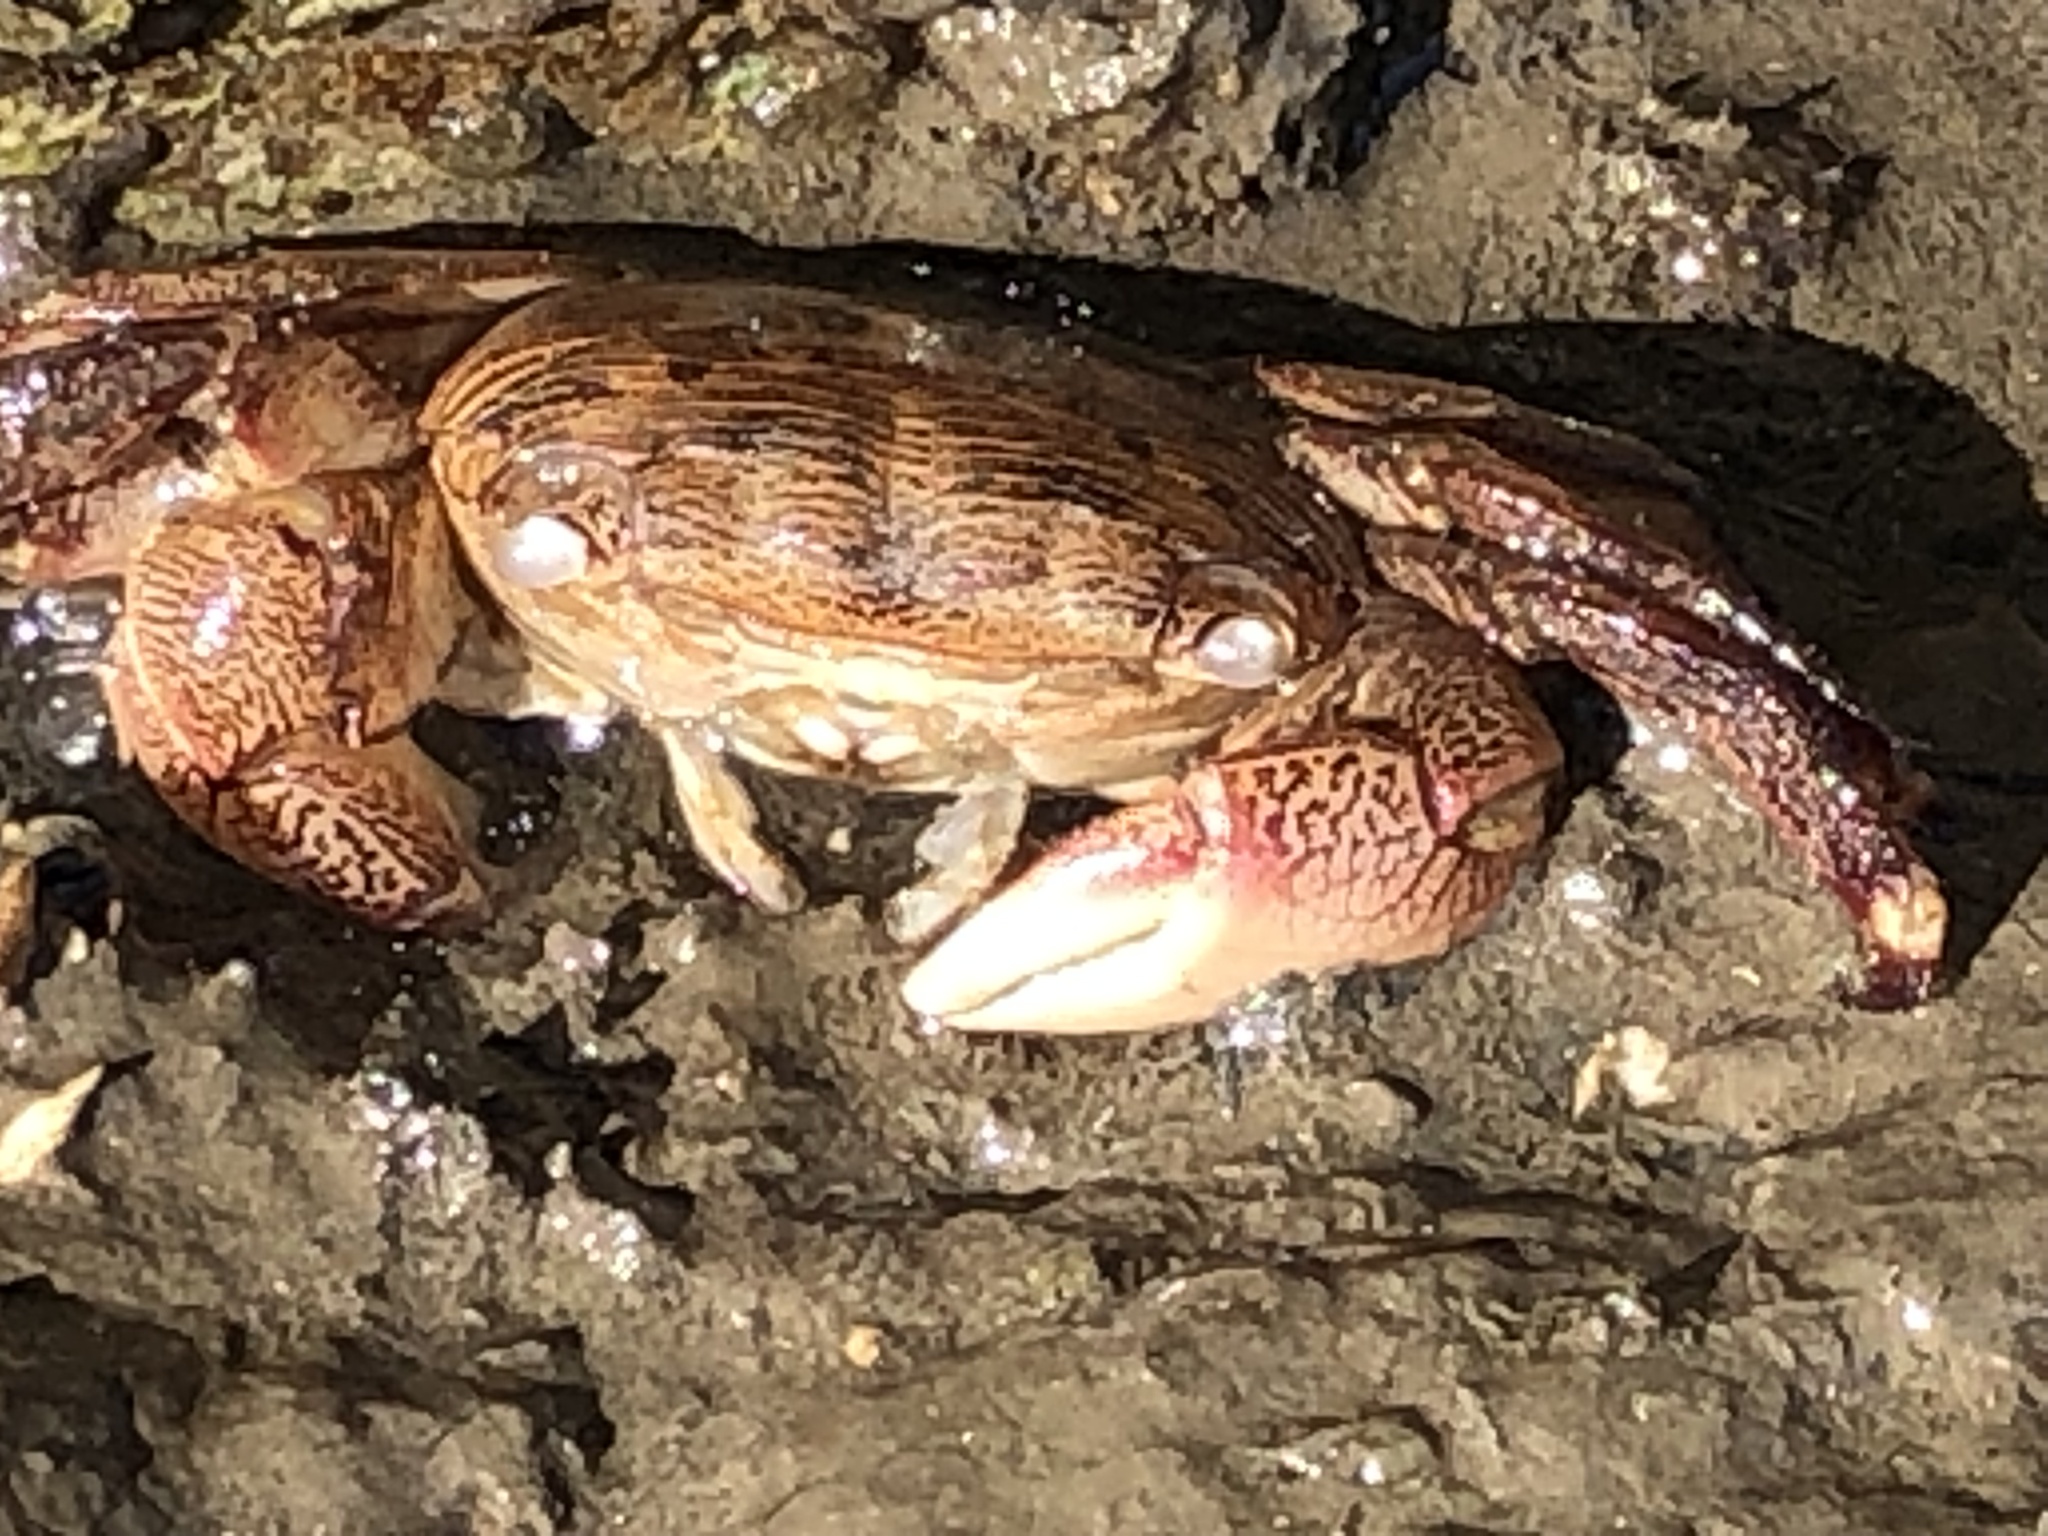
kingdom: Animalia
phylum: Arthropoda
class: Malacostraca
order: Decapoda
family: Grapsidae
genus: Pachygrapsus
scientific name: Pachygrapsus crassipes
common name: Striped shore crab
